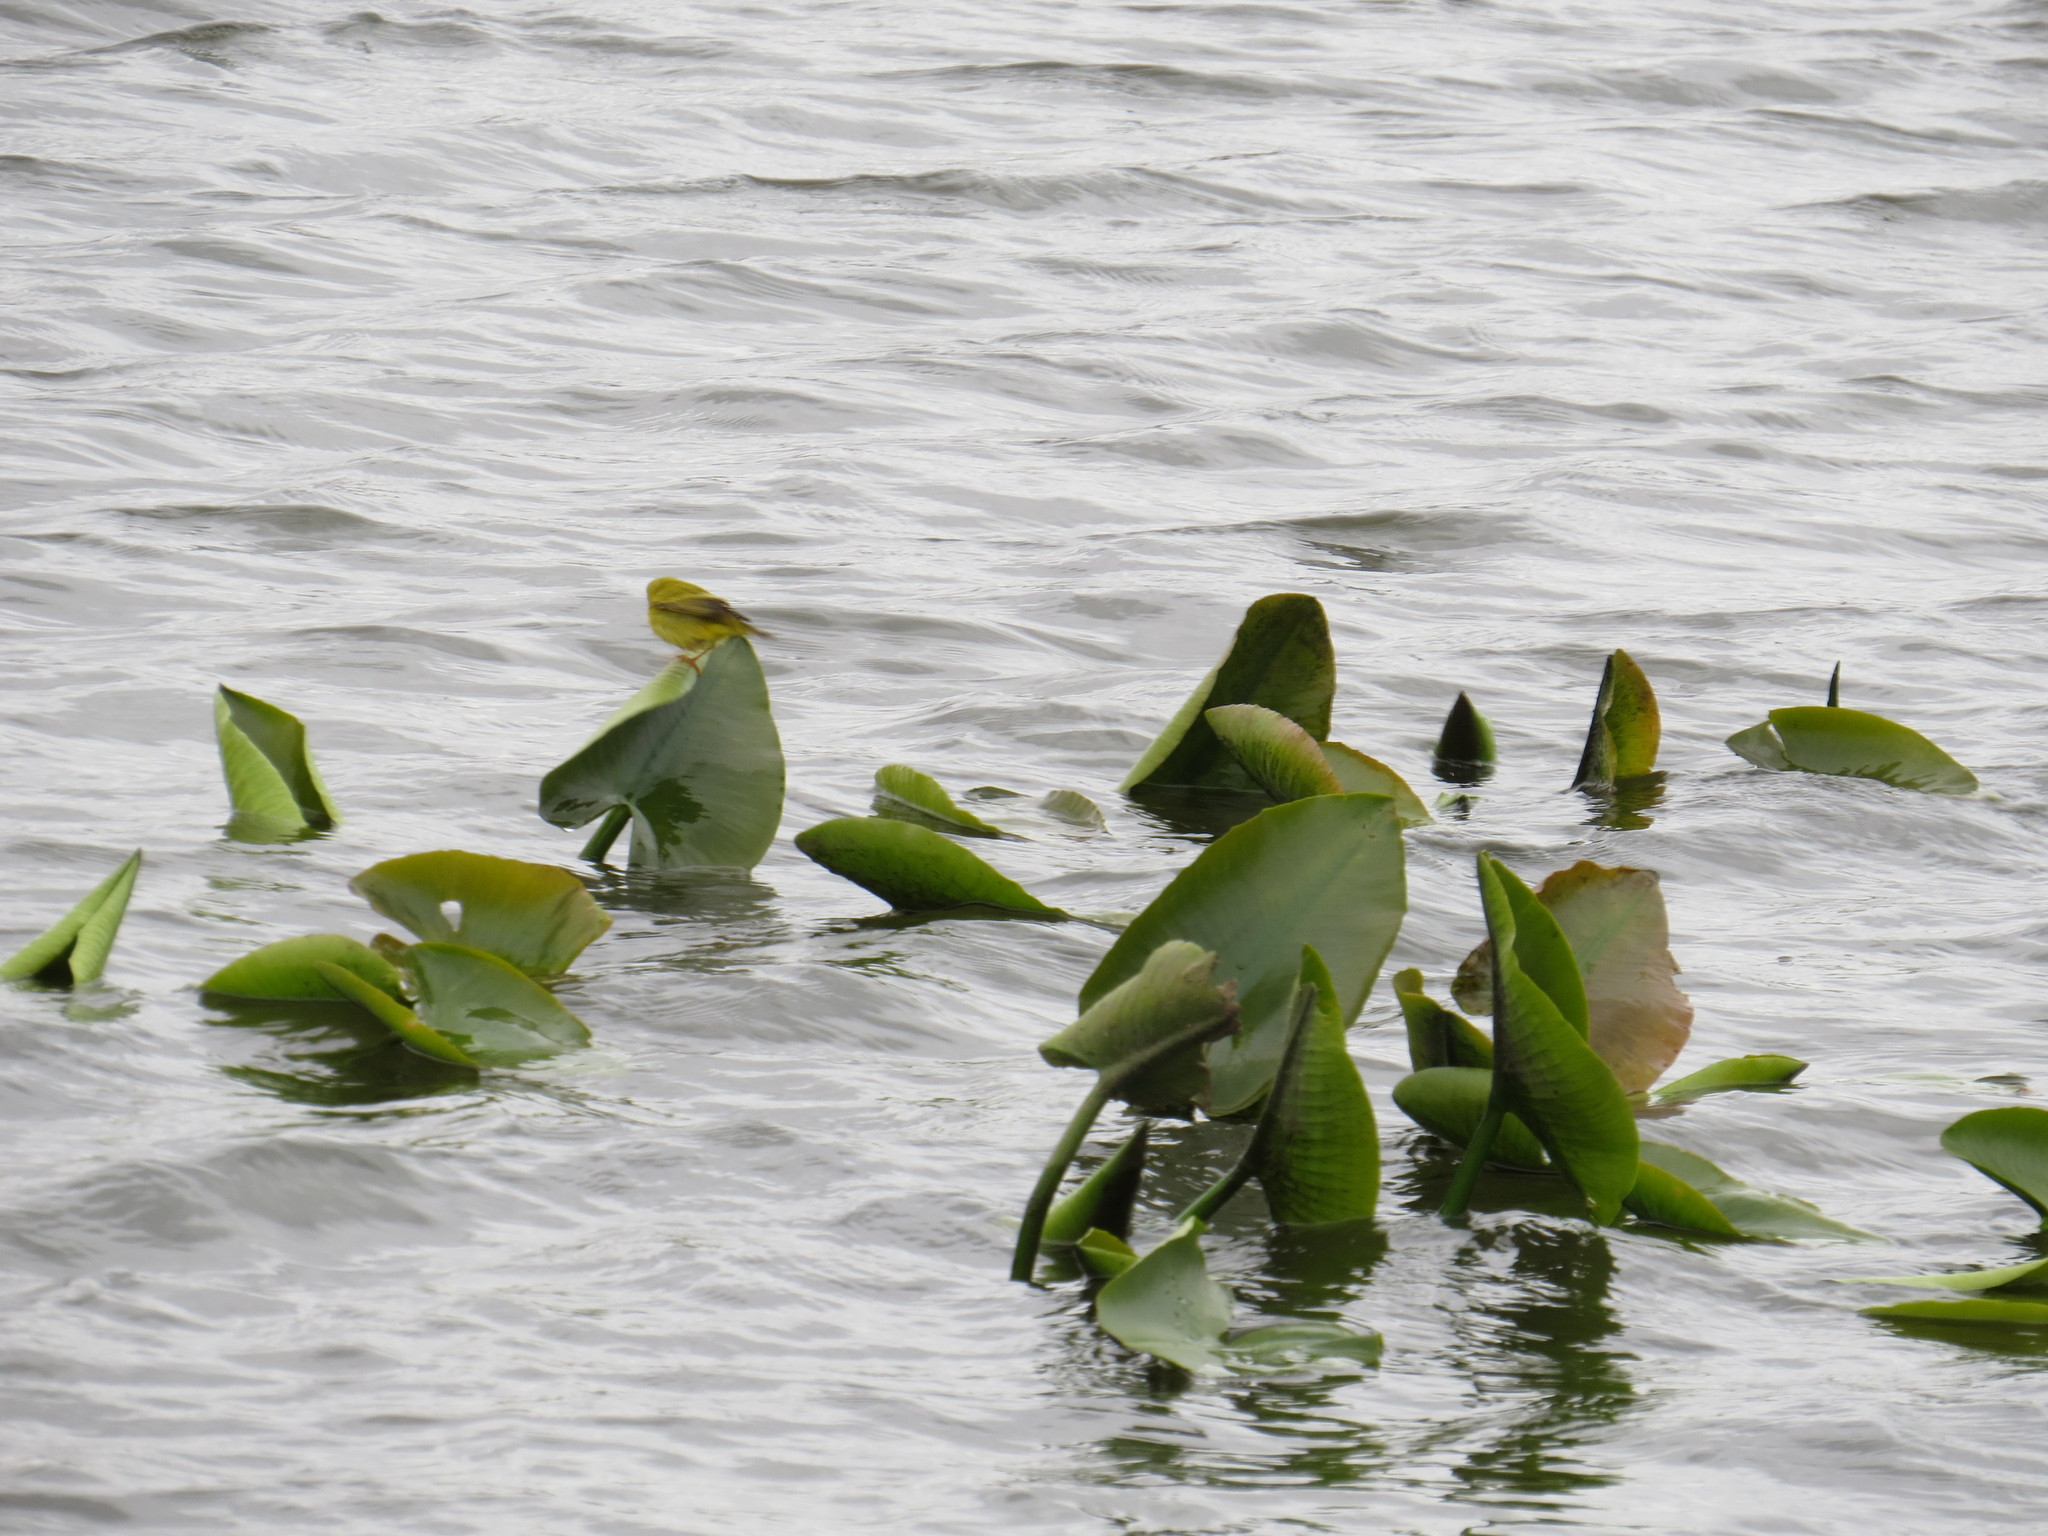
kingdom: Animalia
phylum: Chordata
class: Aves
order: Passeriformes
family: Parulidae
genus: Setophaga
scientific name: Setophaga petechia
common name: Yellow warbler
